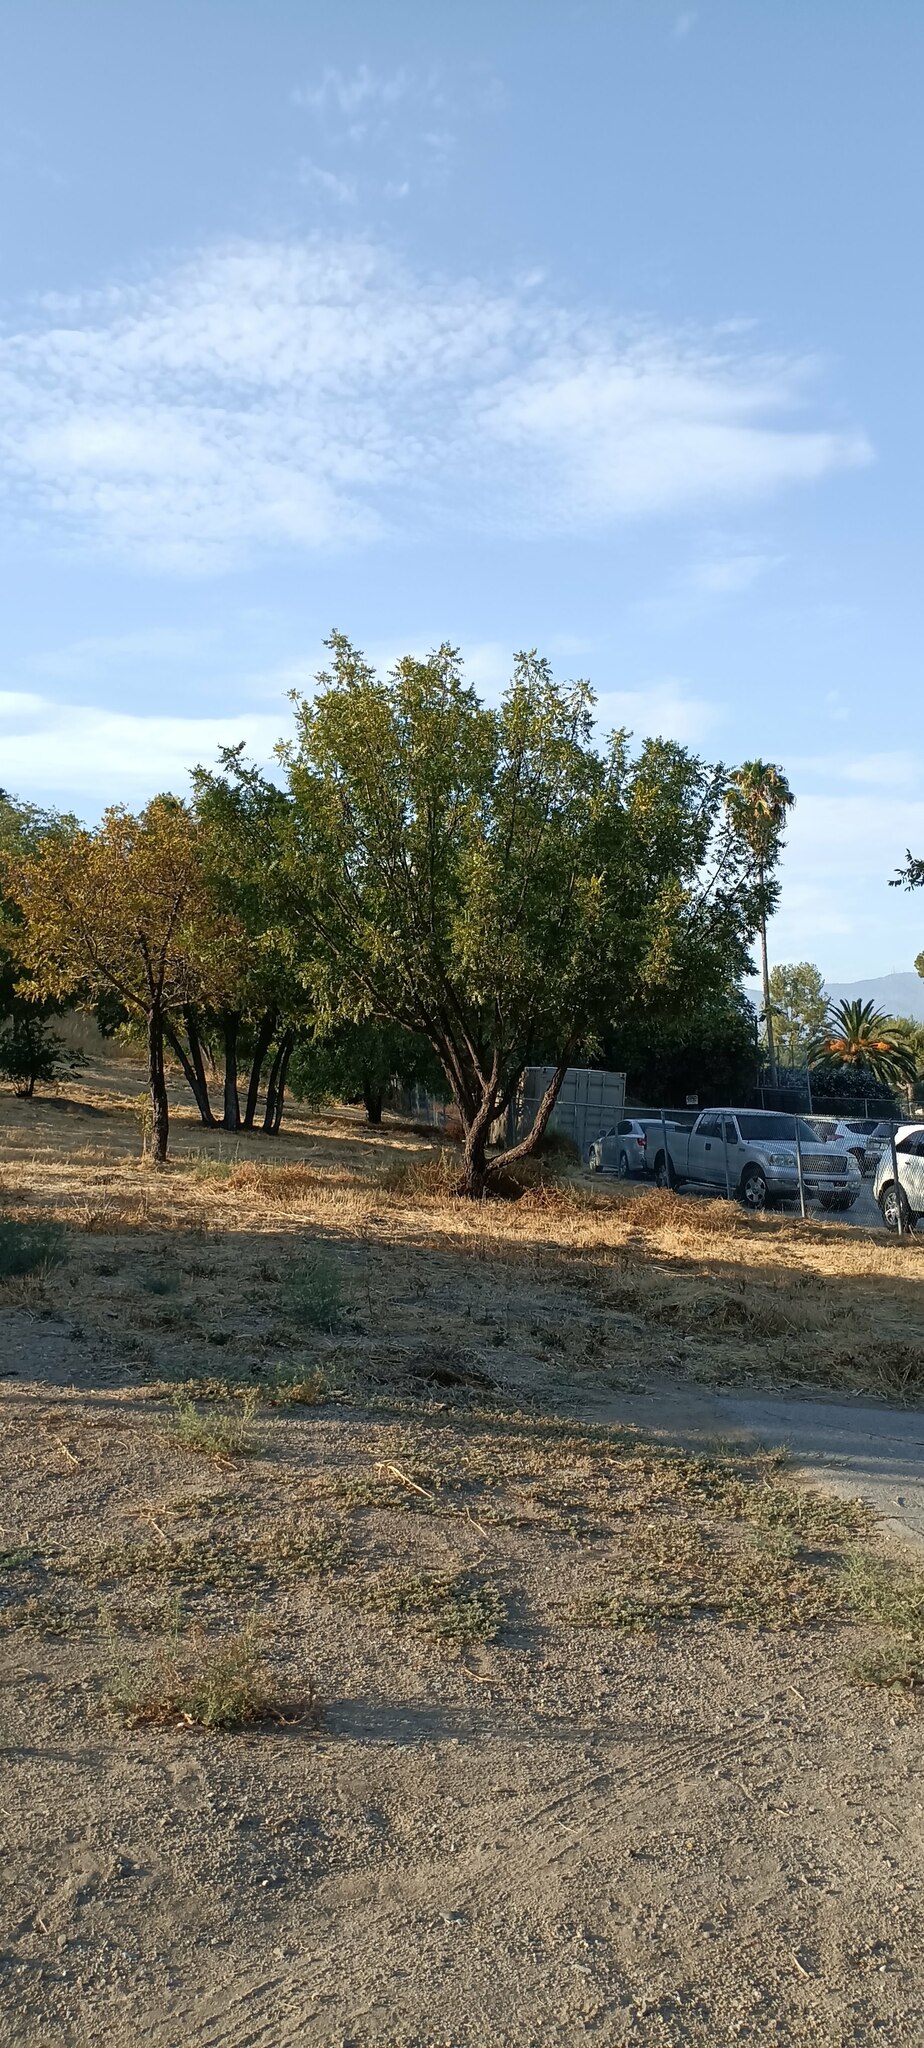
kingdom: Plantae
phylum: Tracheophyta
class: Magnoliopsida
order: Fagales
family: Juglandaceae
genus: Juglans
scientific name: Juglans californica
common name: Southern california black walnut
